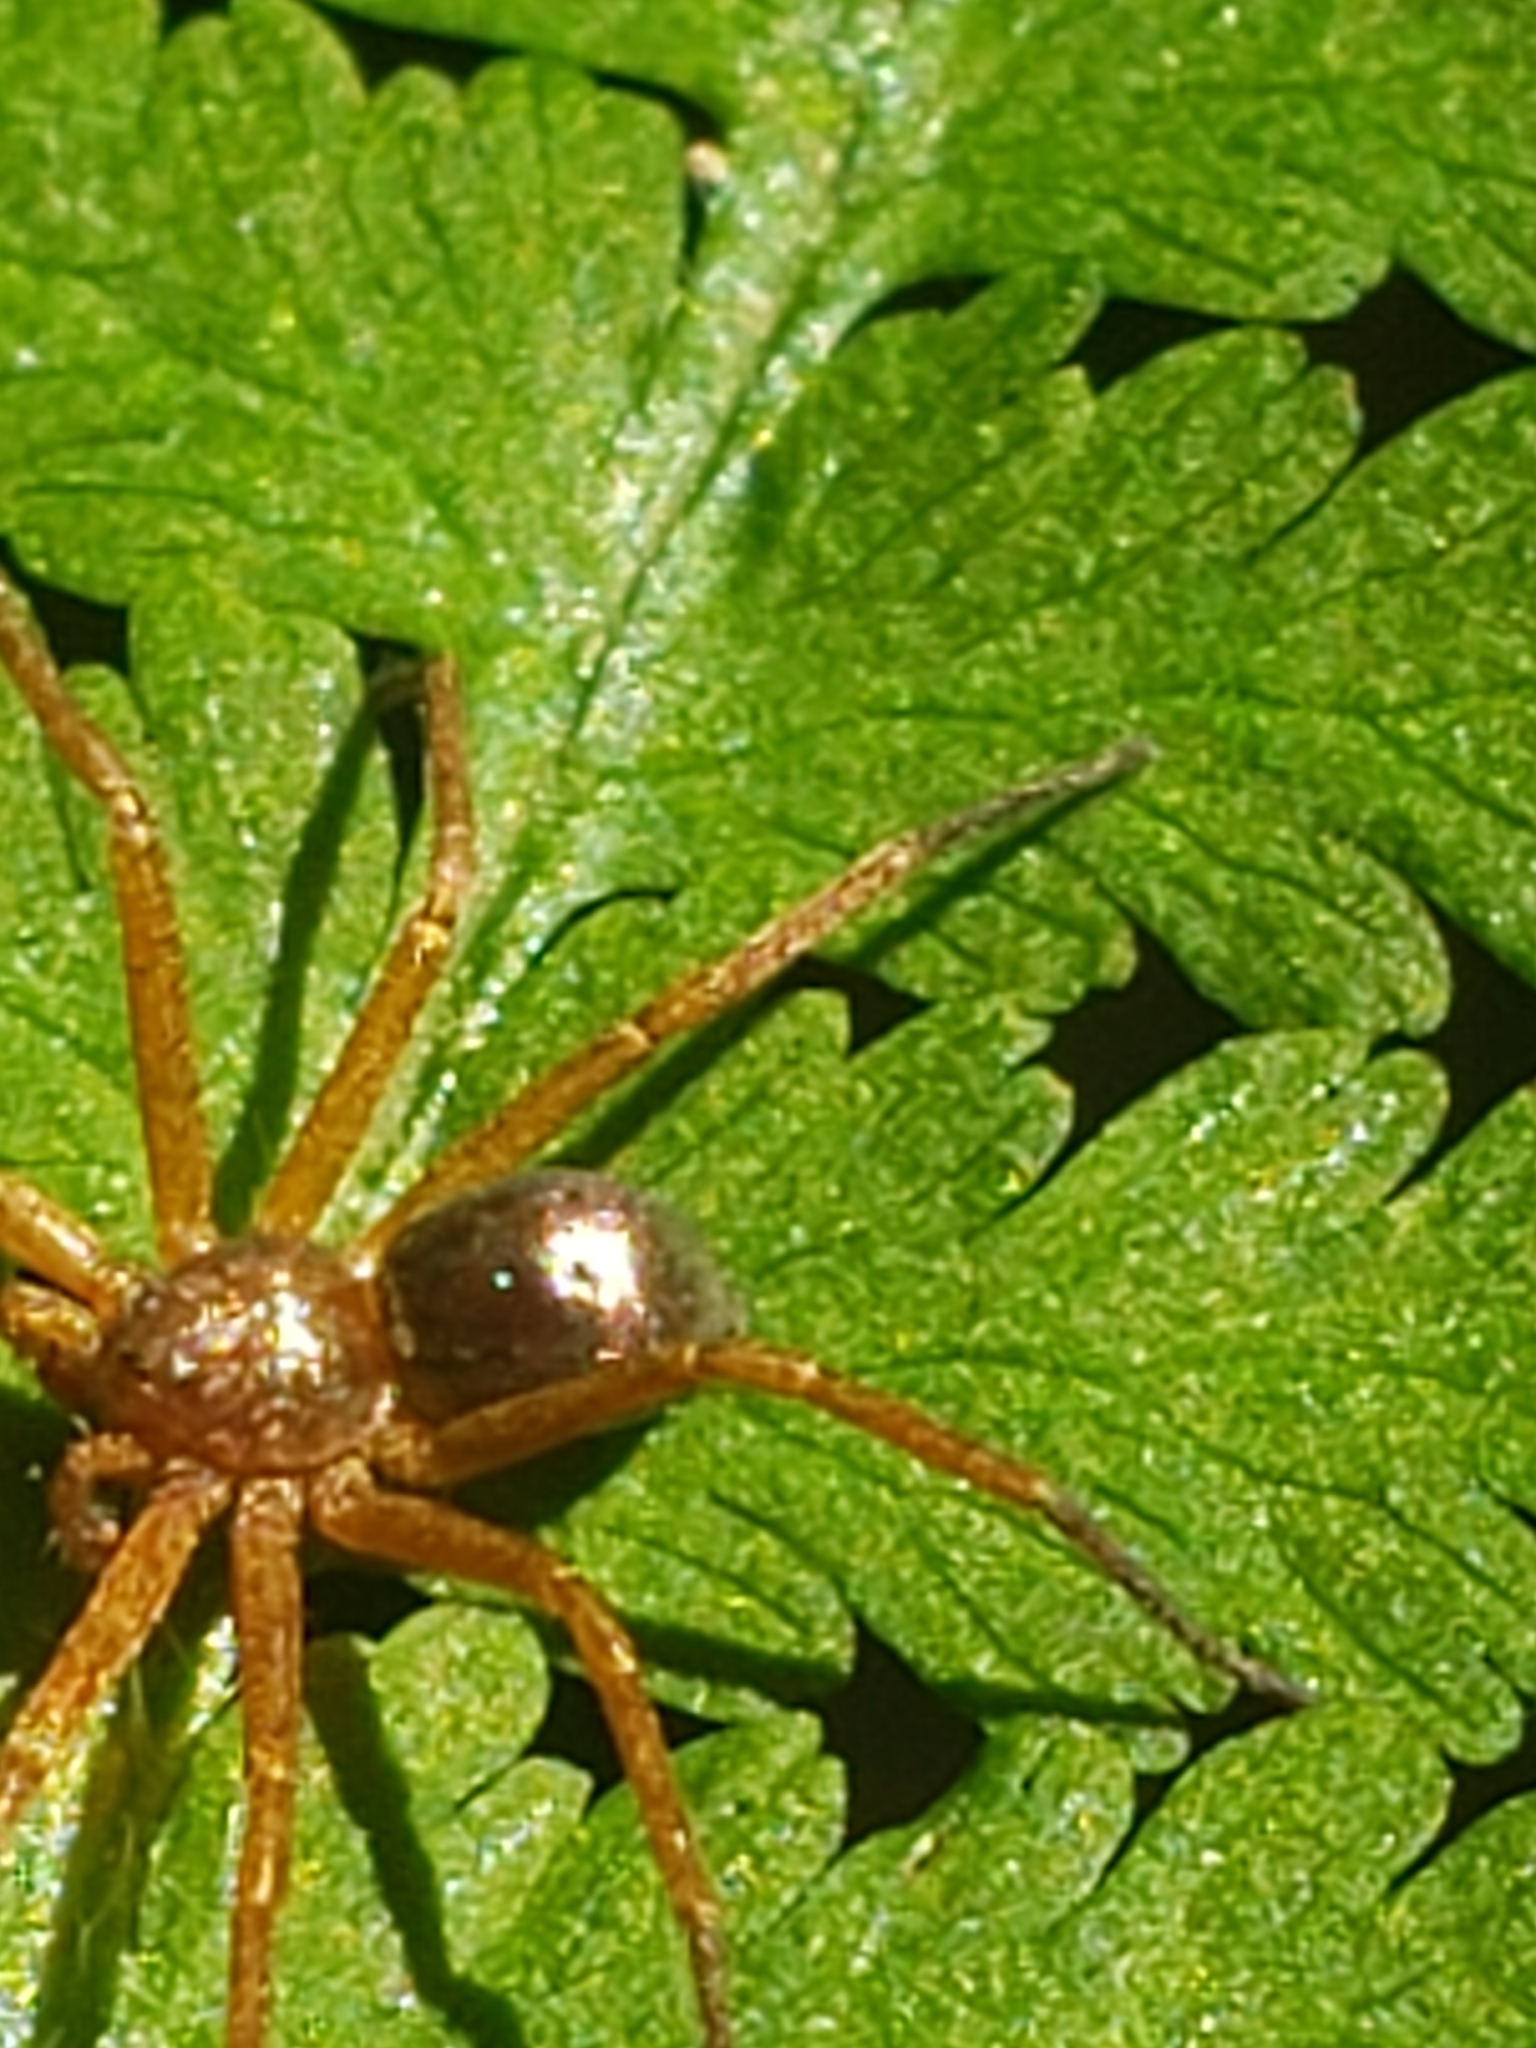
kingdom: Animalia
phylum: Arthropoda
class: Arachnida
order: Araneae
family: Philodromidae
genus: Philodromus
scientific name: Philodromus marxi
